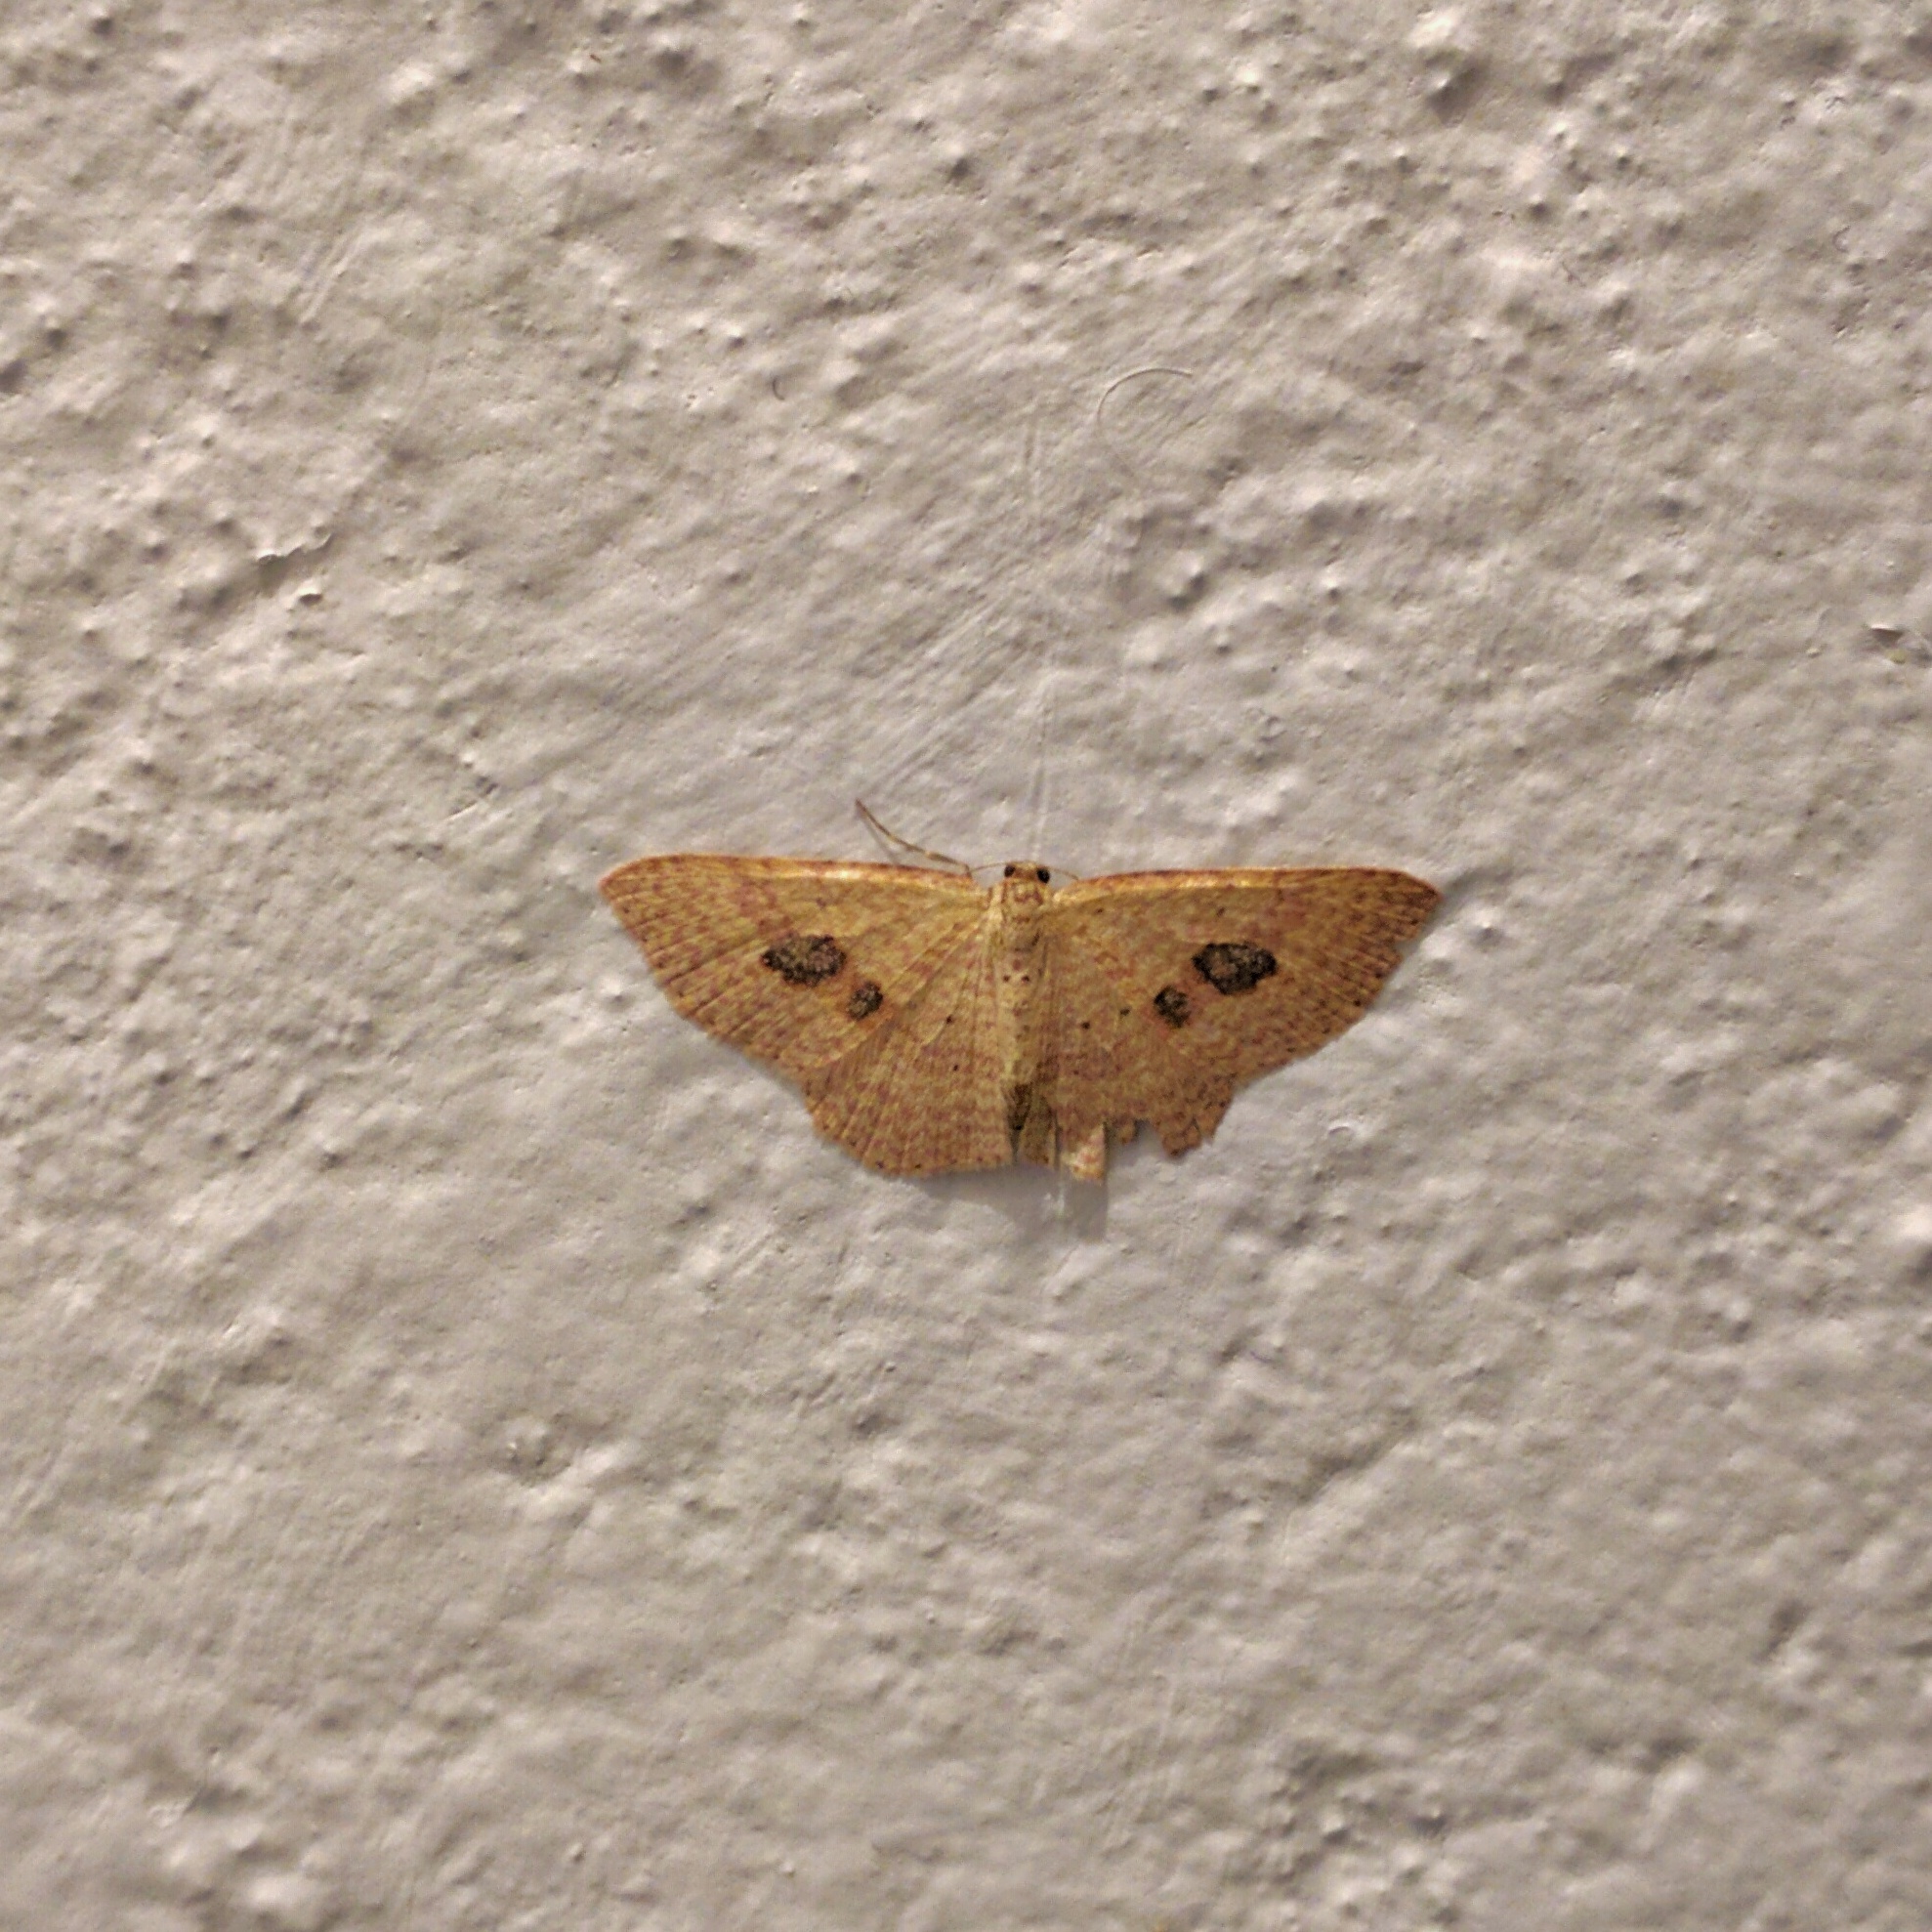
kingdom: Animalia
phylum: Arthropoda
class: Insecta
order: Lepidoptera
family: Geometridae
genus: Epicyme
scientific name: Epicyme rubropunctaria
